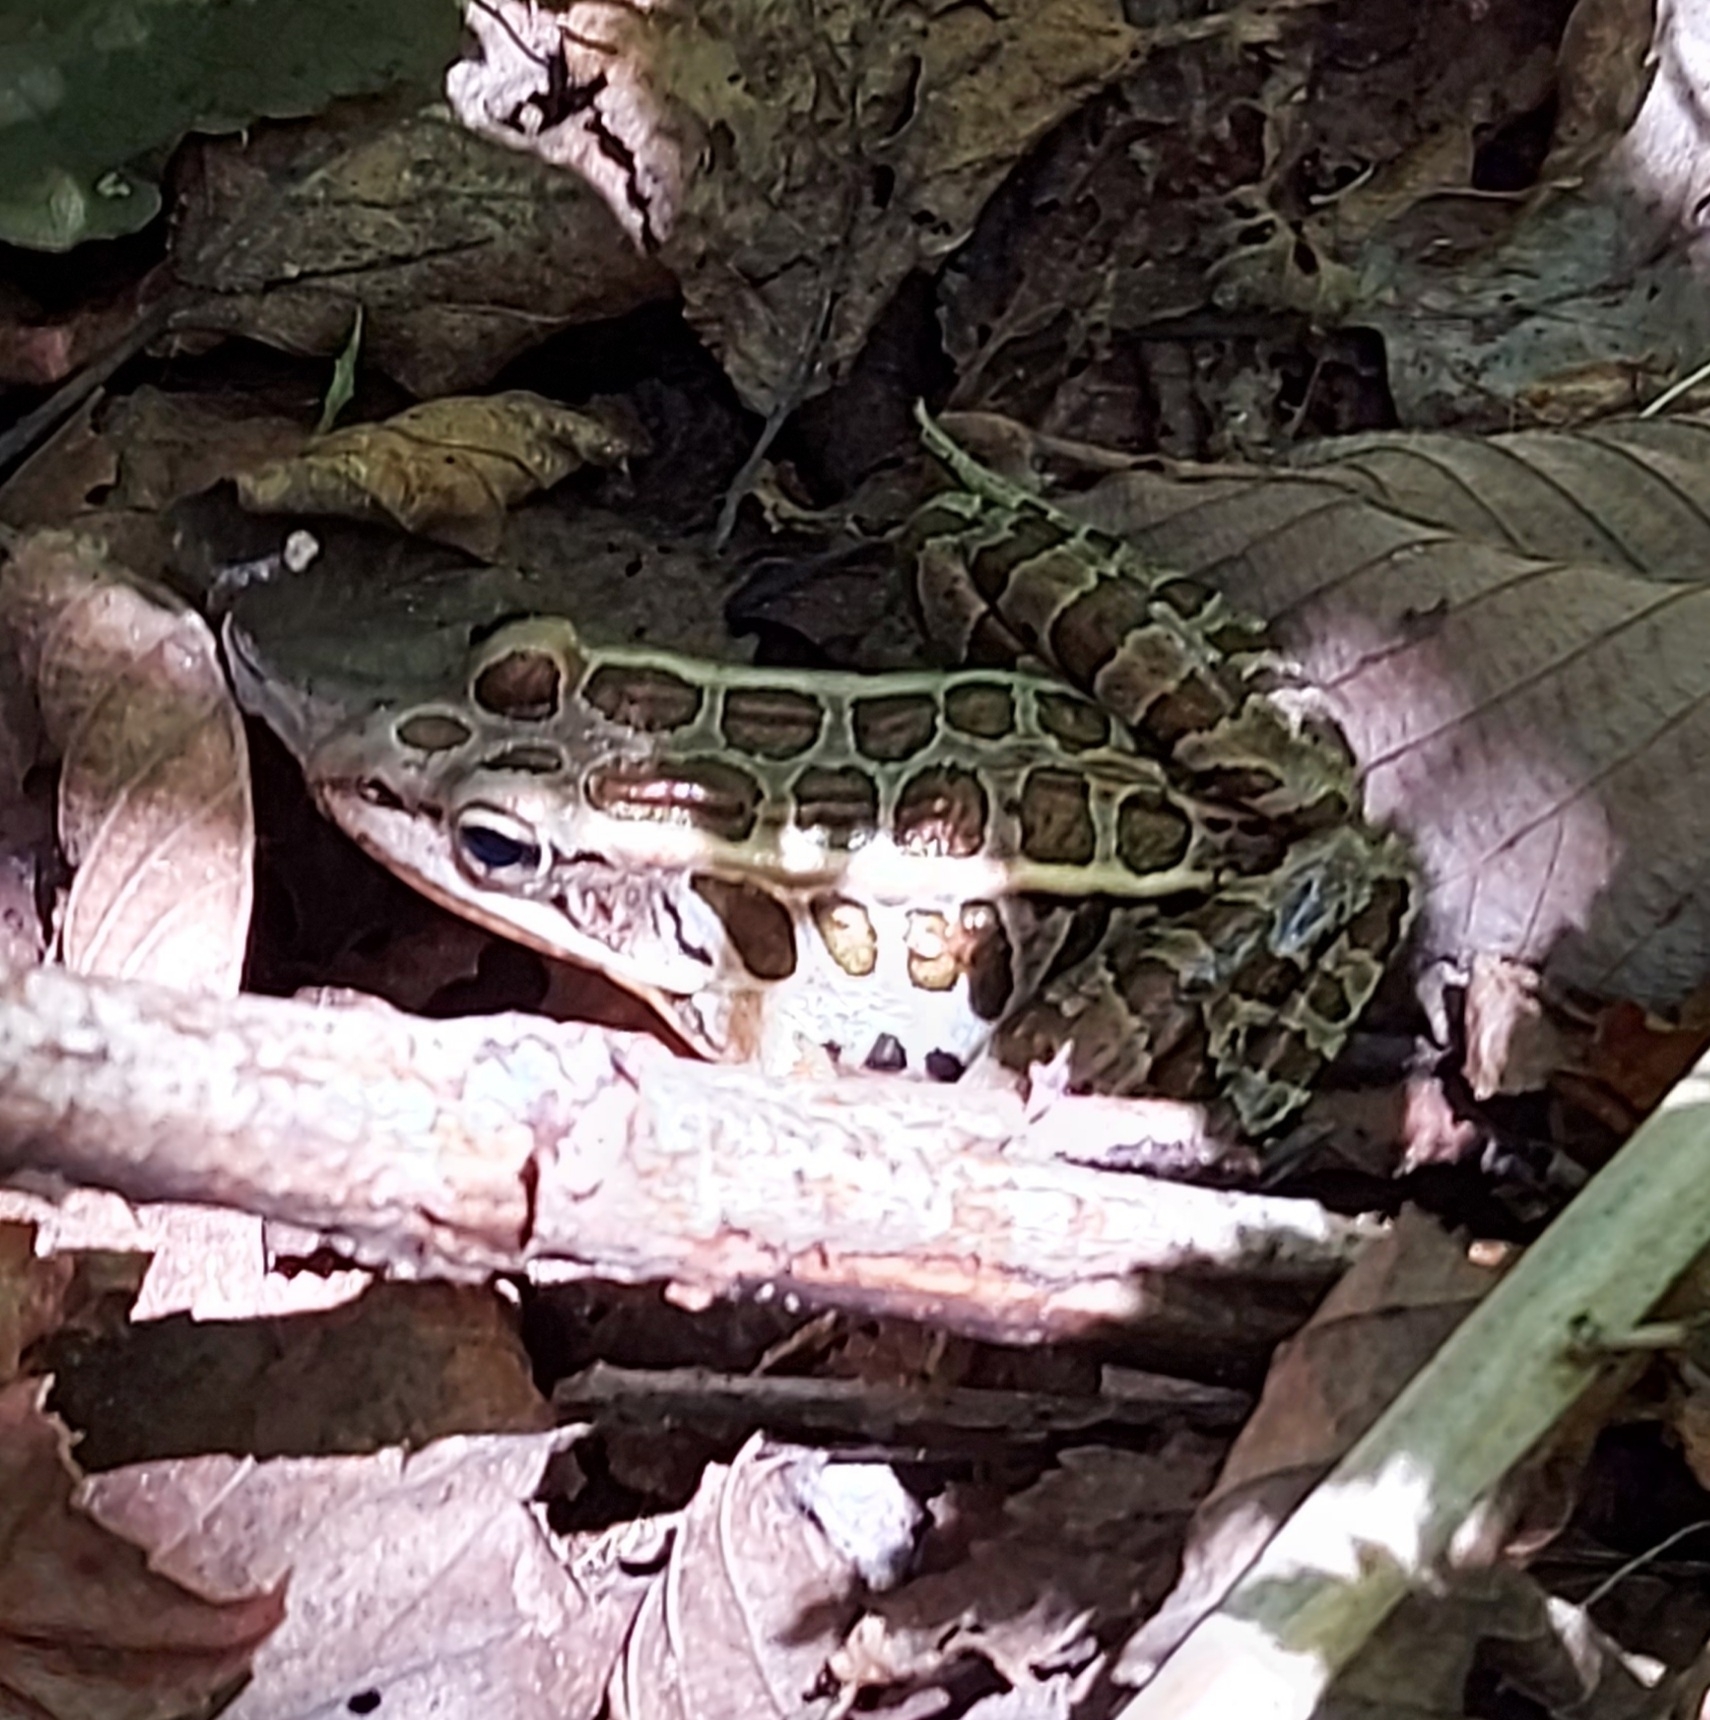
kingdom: Animalia
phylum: Chordata
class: Amphibia
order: Anura
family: Ranidae
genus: Lithobates
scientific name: Lithobates palustris
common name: Pickerel frog
